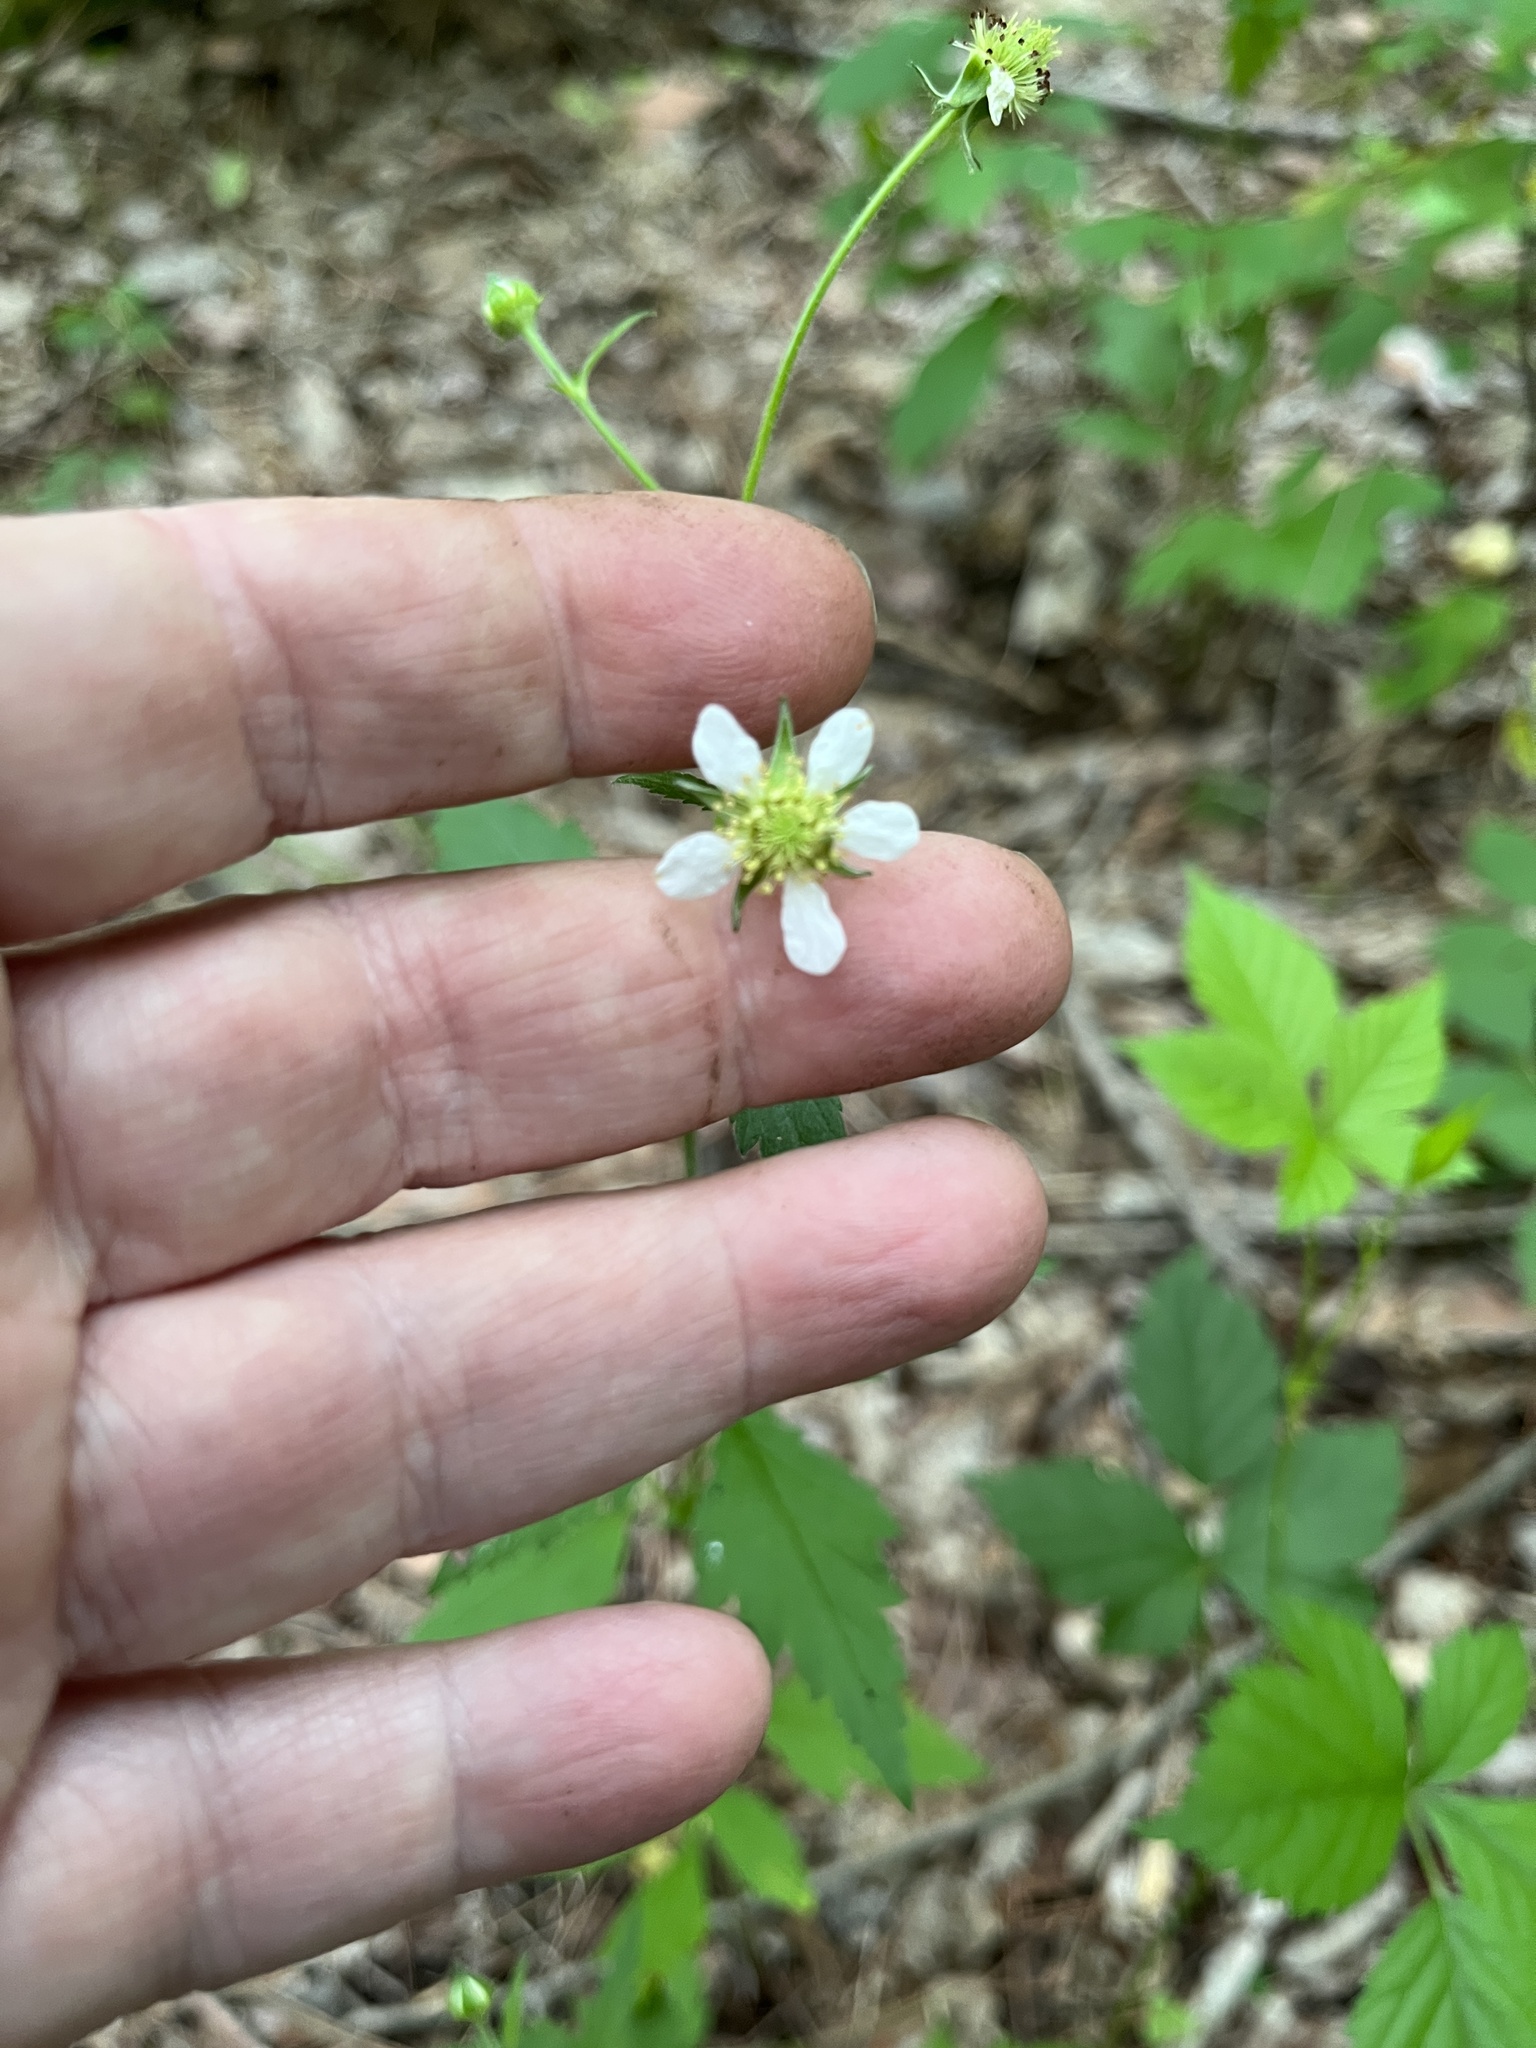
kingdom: Plantae
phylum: Tracheophyta
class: Magnoliopsida
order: Rosales
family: Rosaceae
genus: Geum
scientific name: Geum canadense
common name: White avens
